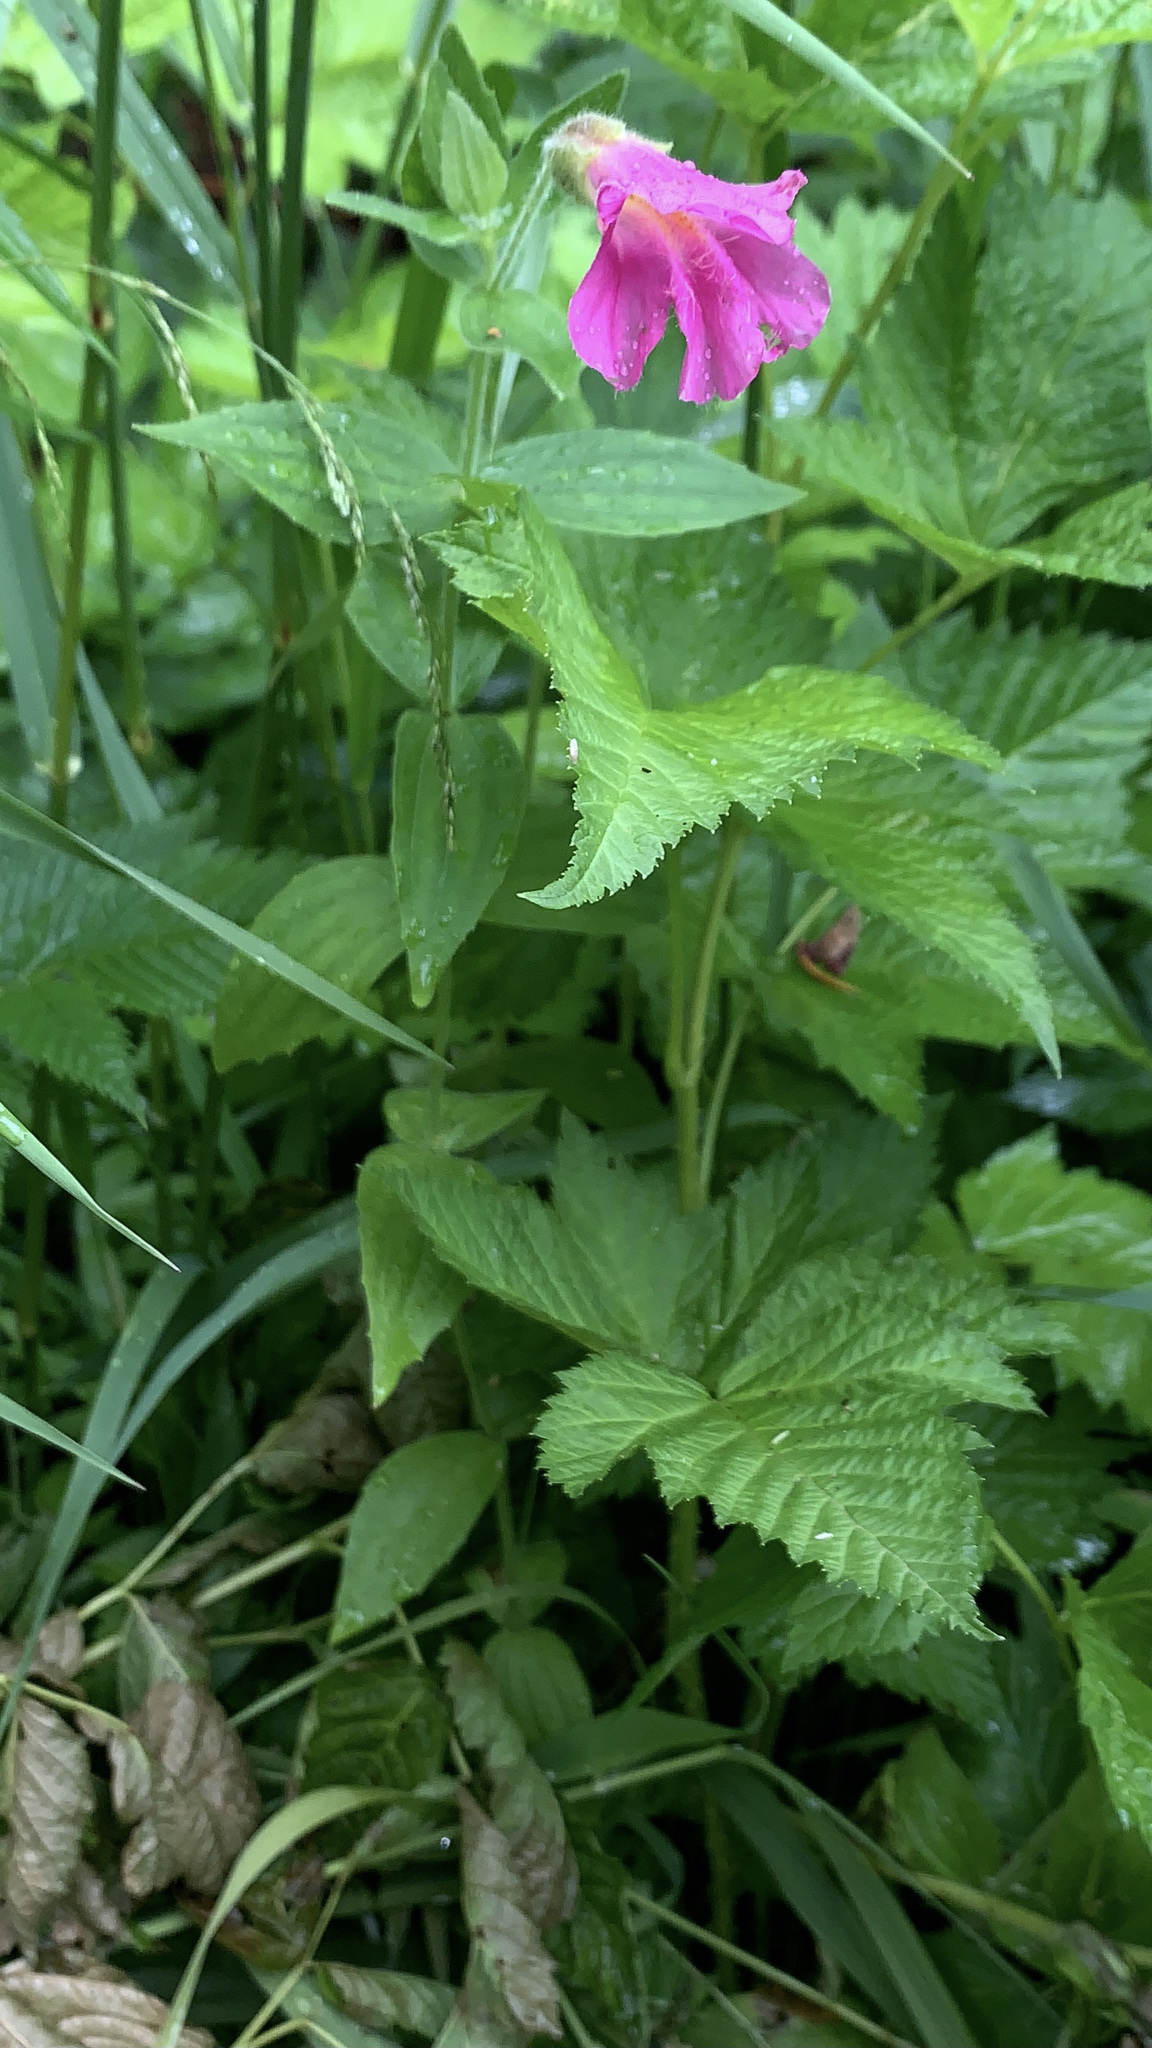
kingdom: Plantae
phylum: Tracheophyta
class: Magnoliopsida
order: Lamiales
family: Phrymaceae
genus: Erythranthe
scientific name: Erythranthe lewisii
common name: Lewis's monkey-flower
